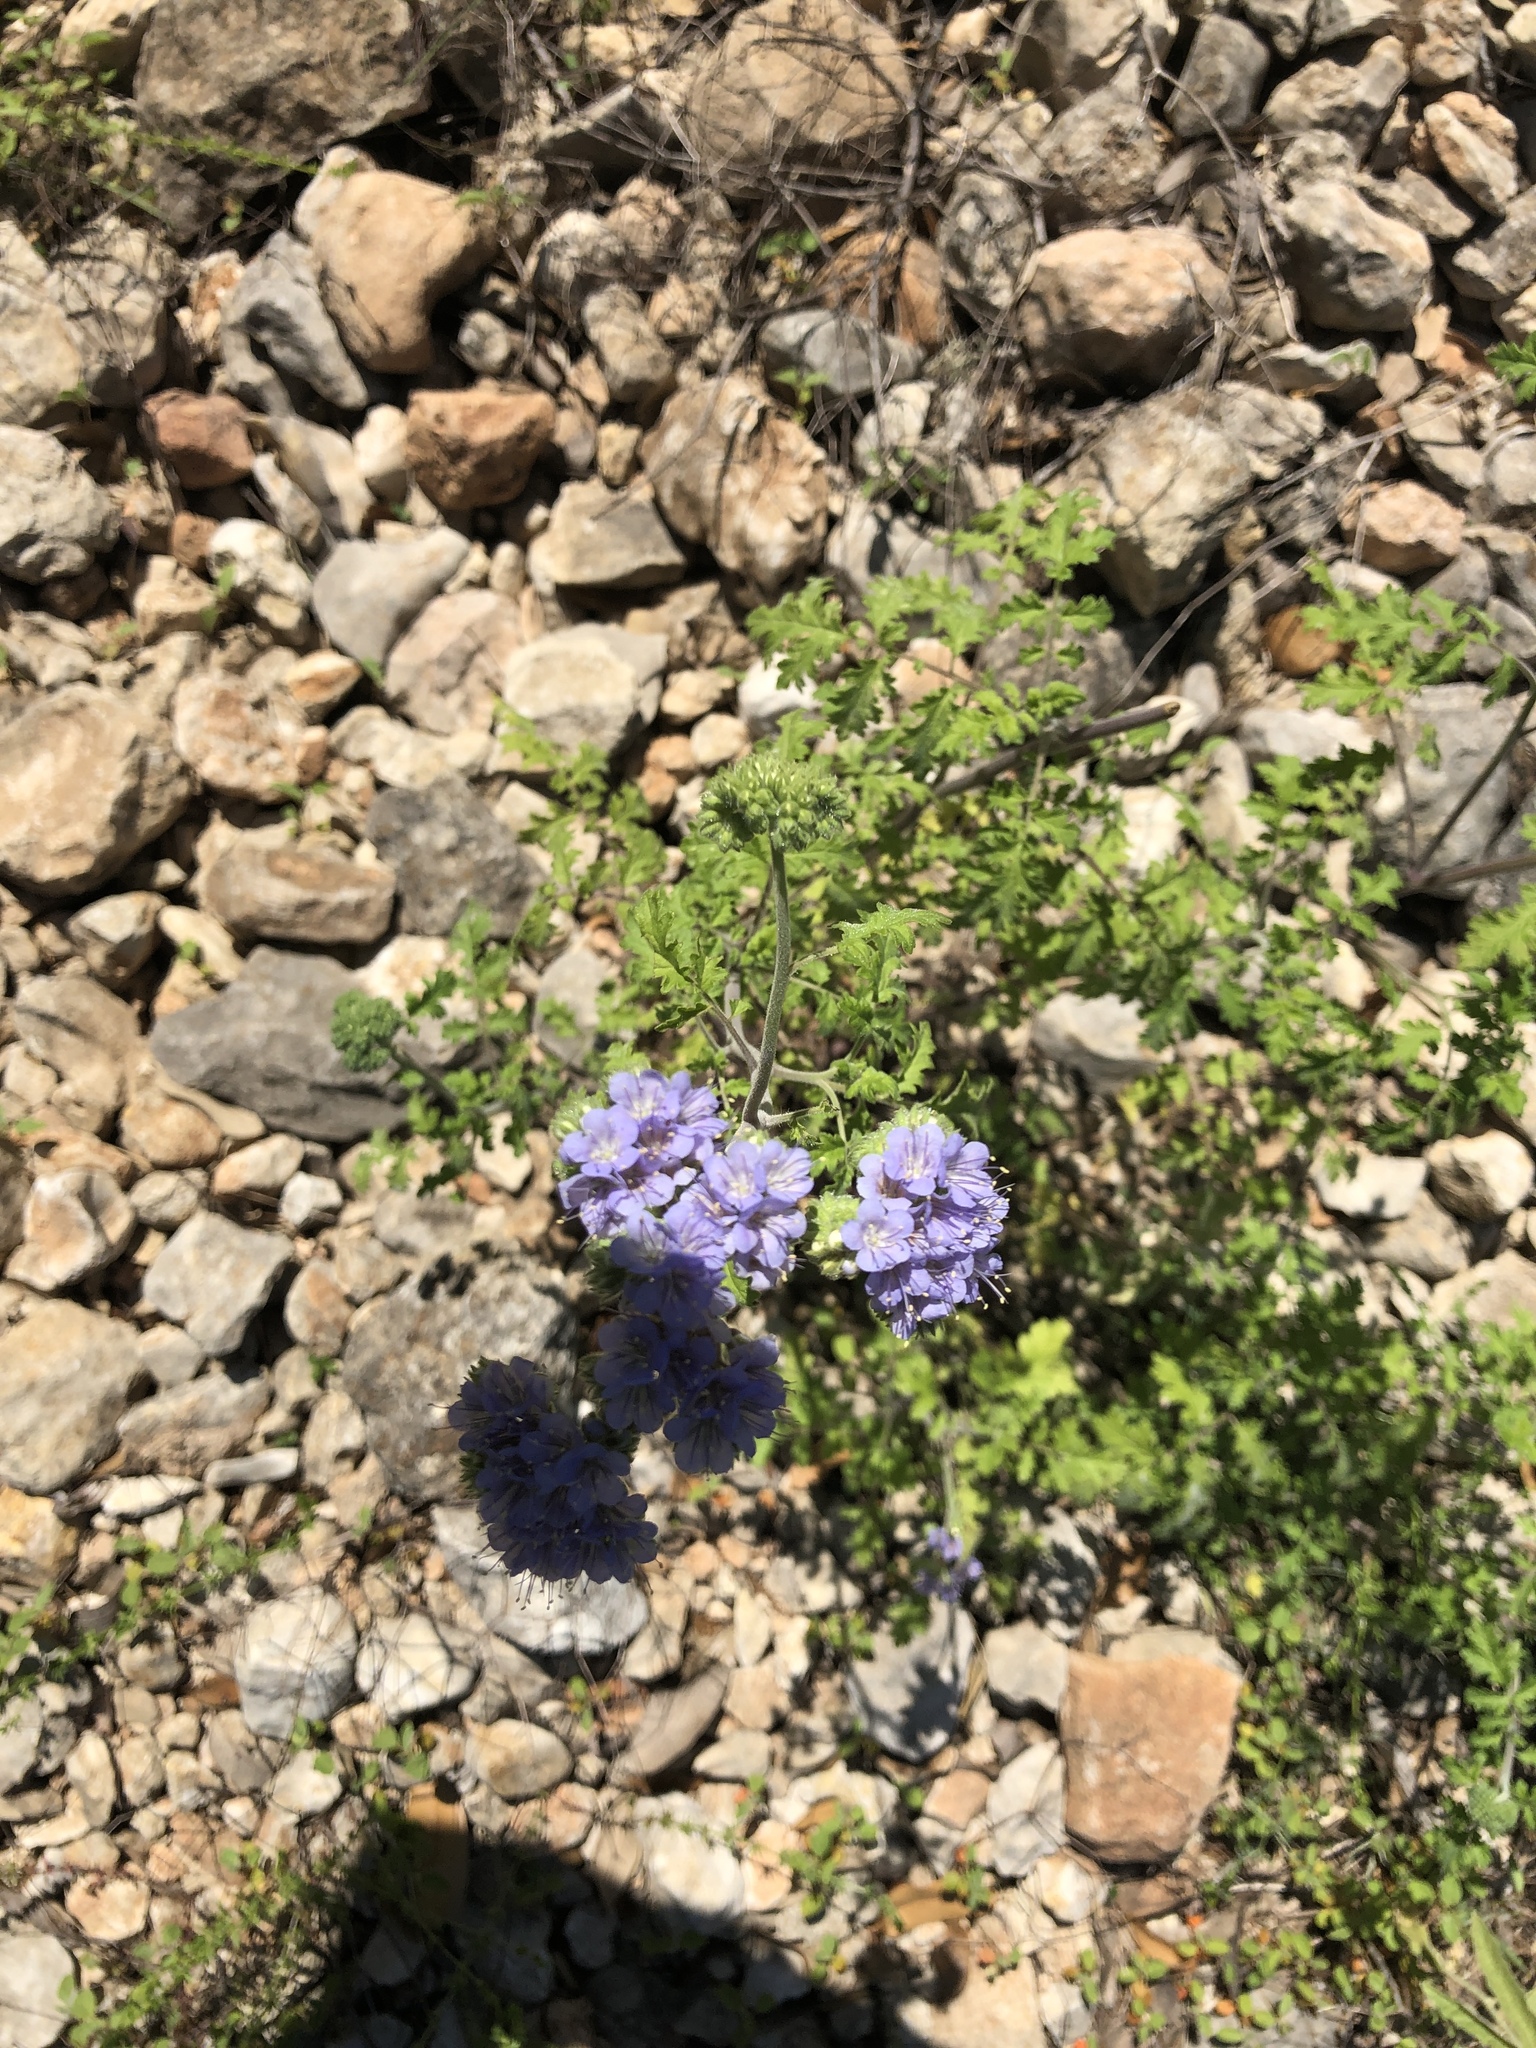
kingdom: Plantae
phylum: Tracheophyta
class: Magnoliopsida
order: Boraginales
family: Hydrophyllaceae
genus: Phacelia
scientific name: Phacelia congesta
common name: Blue curls
